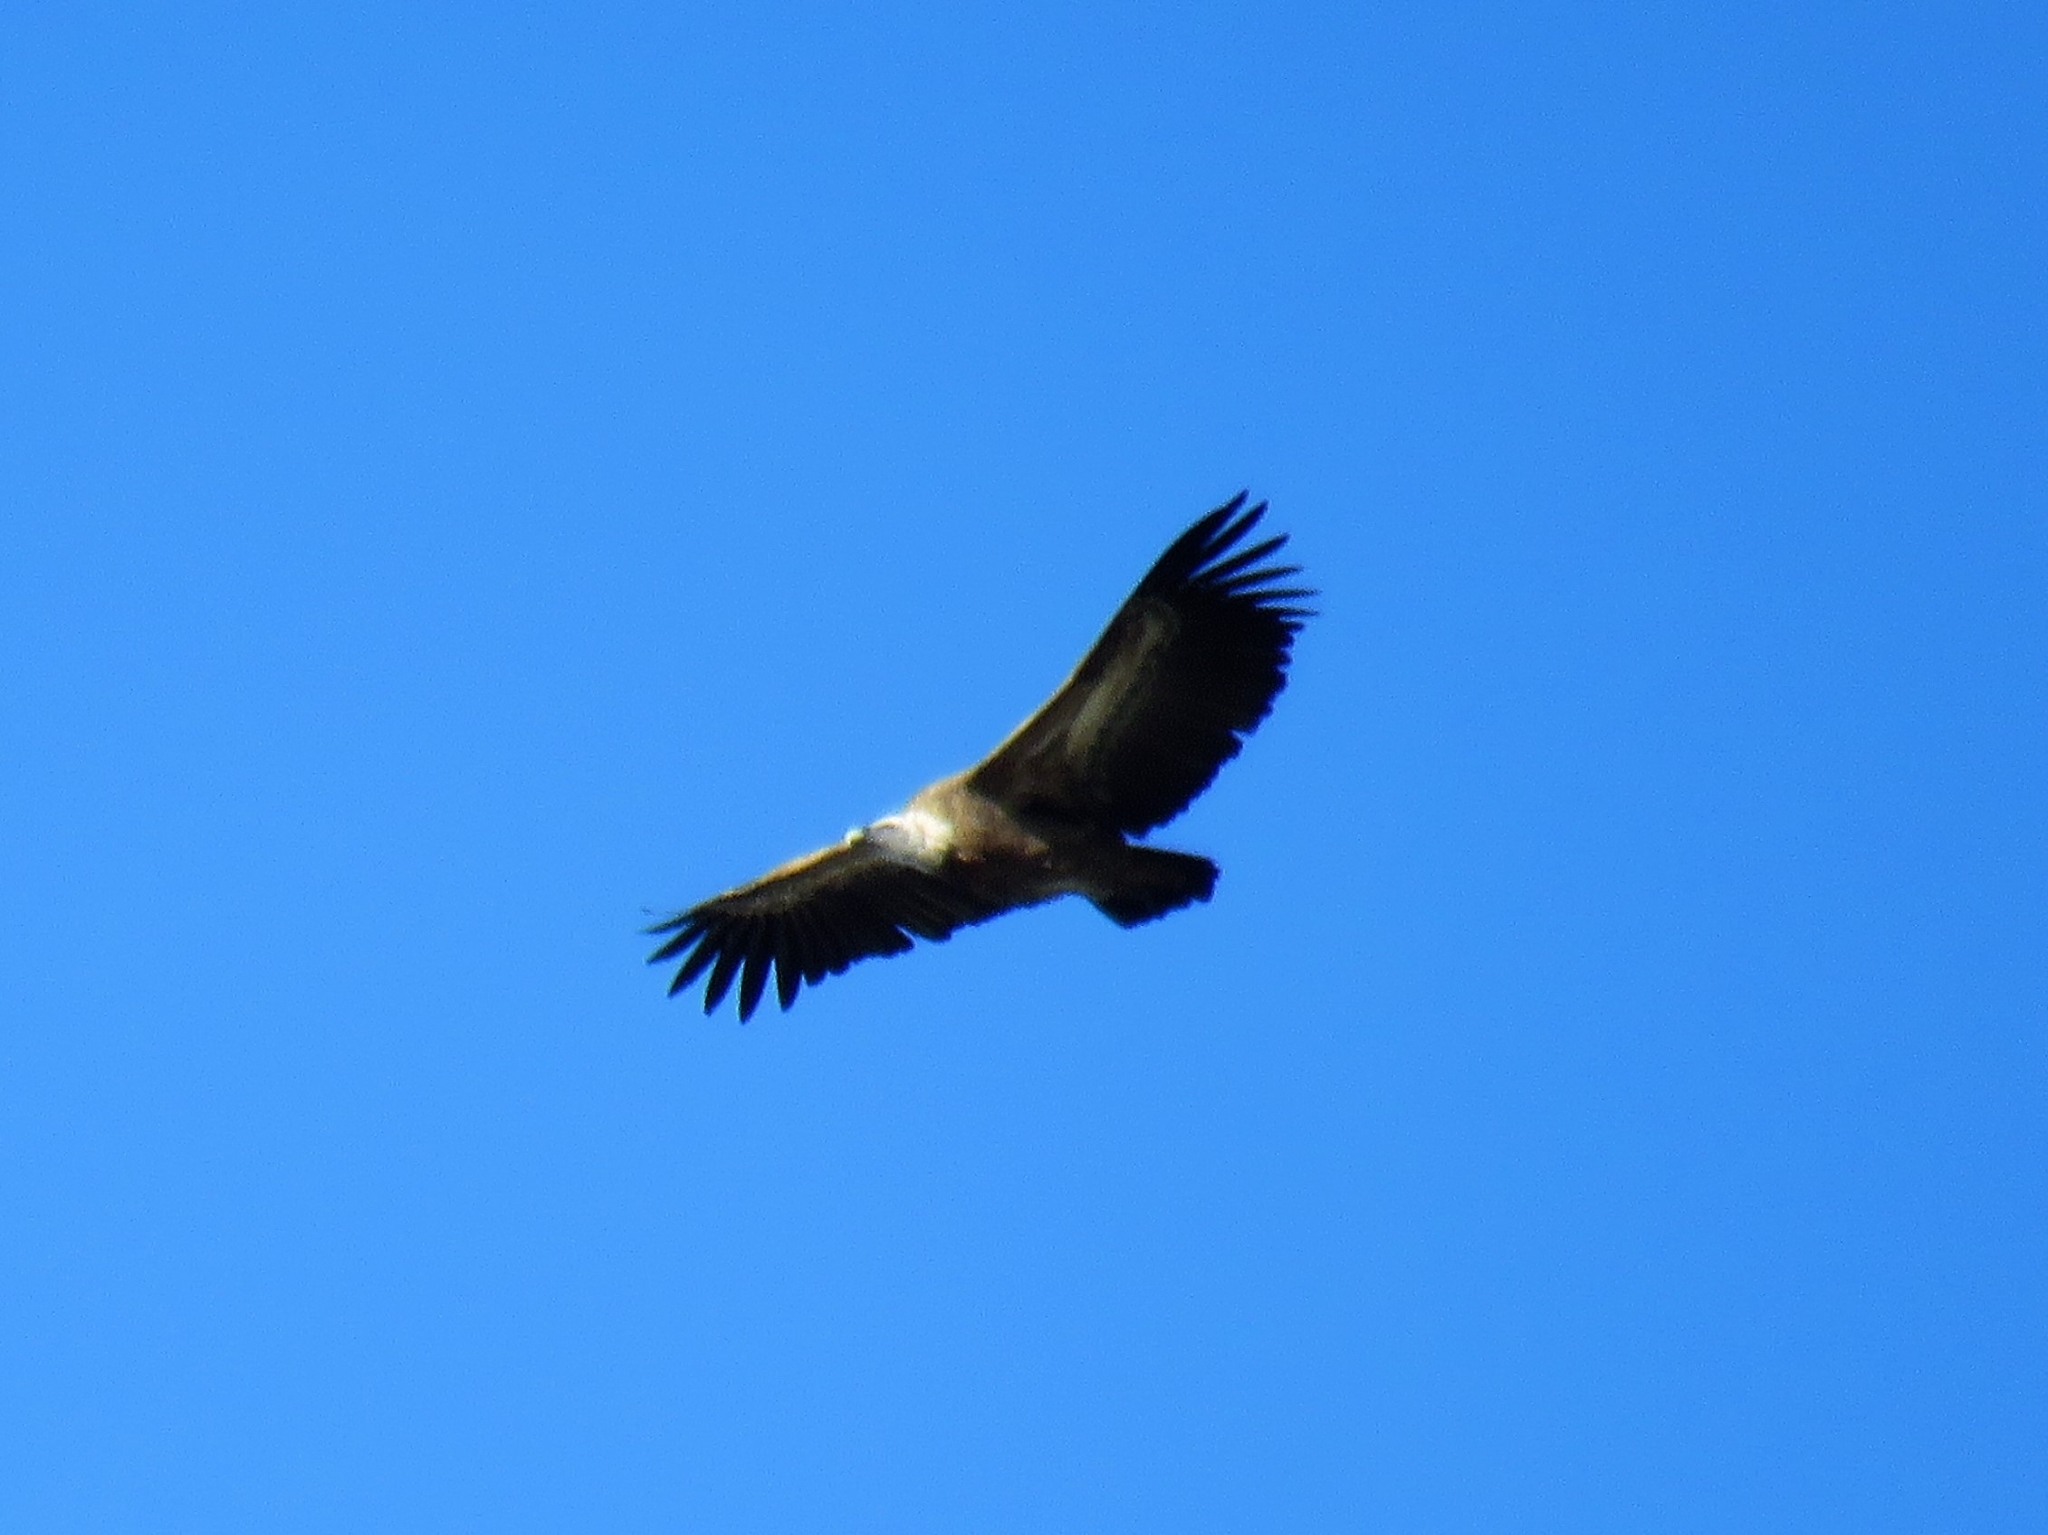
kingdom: Animalia
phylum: Chordata
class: Aves
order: Accipitriformes
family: Accipitridae
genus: Gyps
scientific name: Gyps fulvus
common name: Griffon vulture
